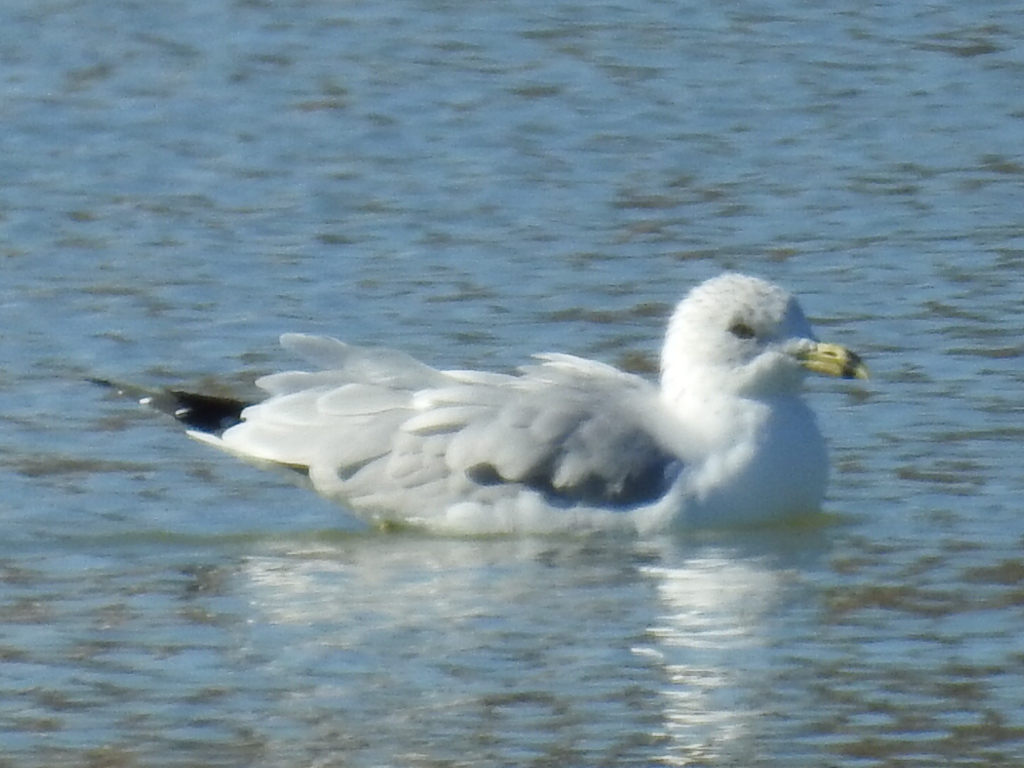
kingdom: Animalia
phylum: Chordata
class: Aves
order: Charadriiformes
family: Laridae
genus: Larus
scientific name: Larus delawarensis
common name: Ring-billed gull
